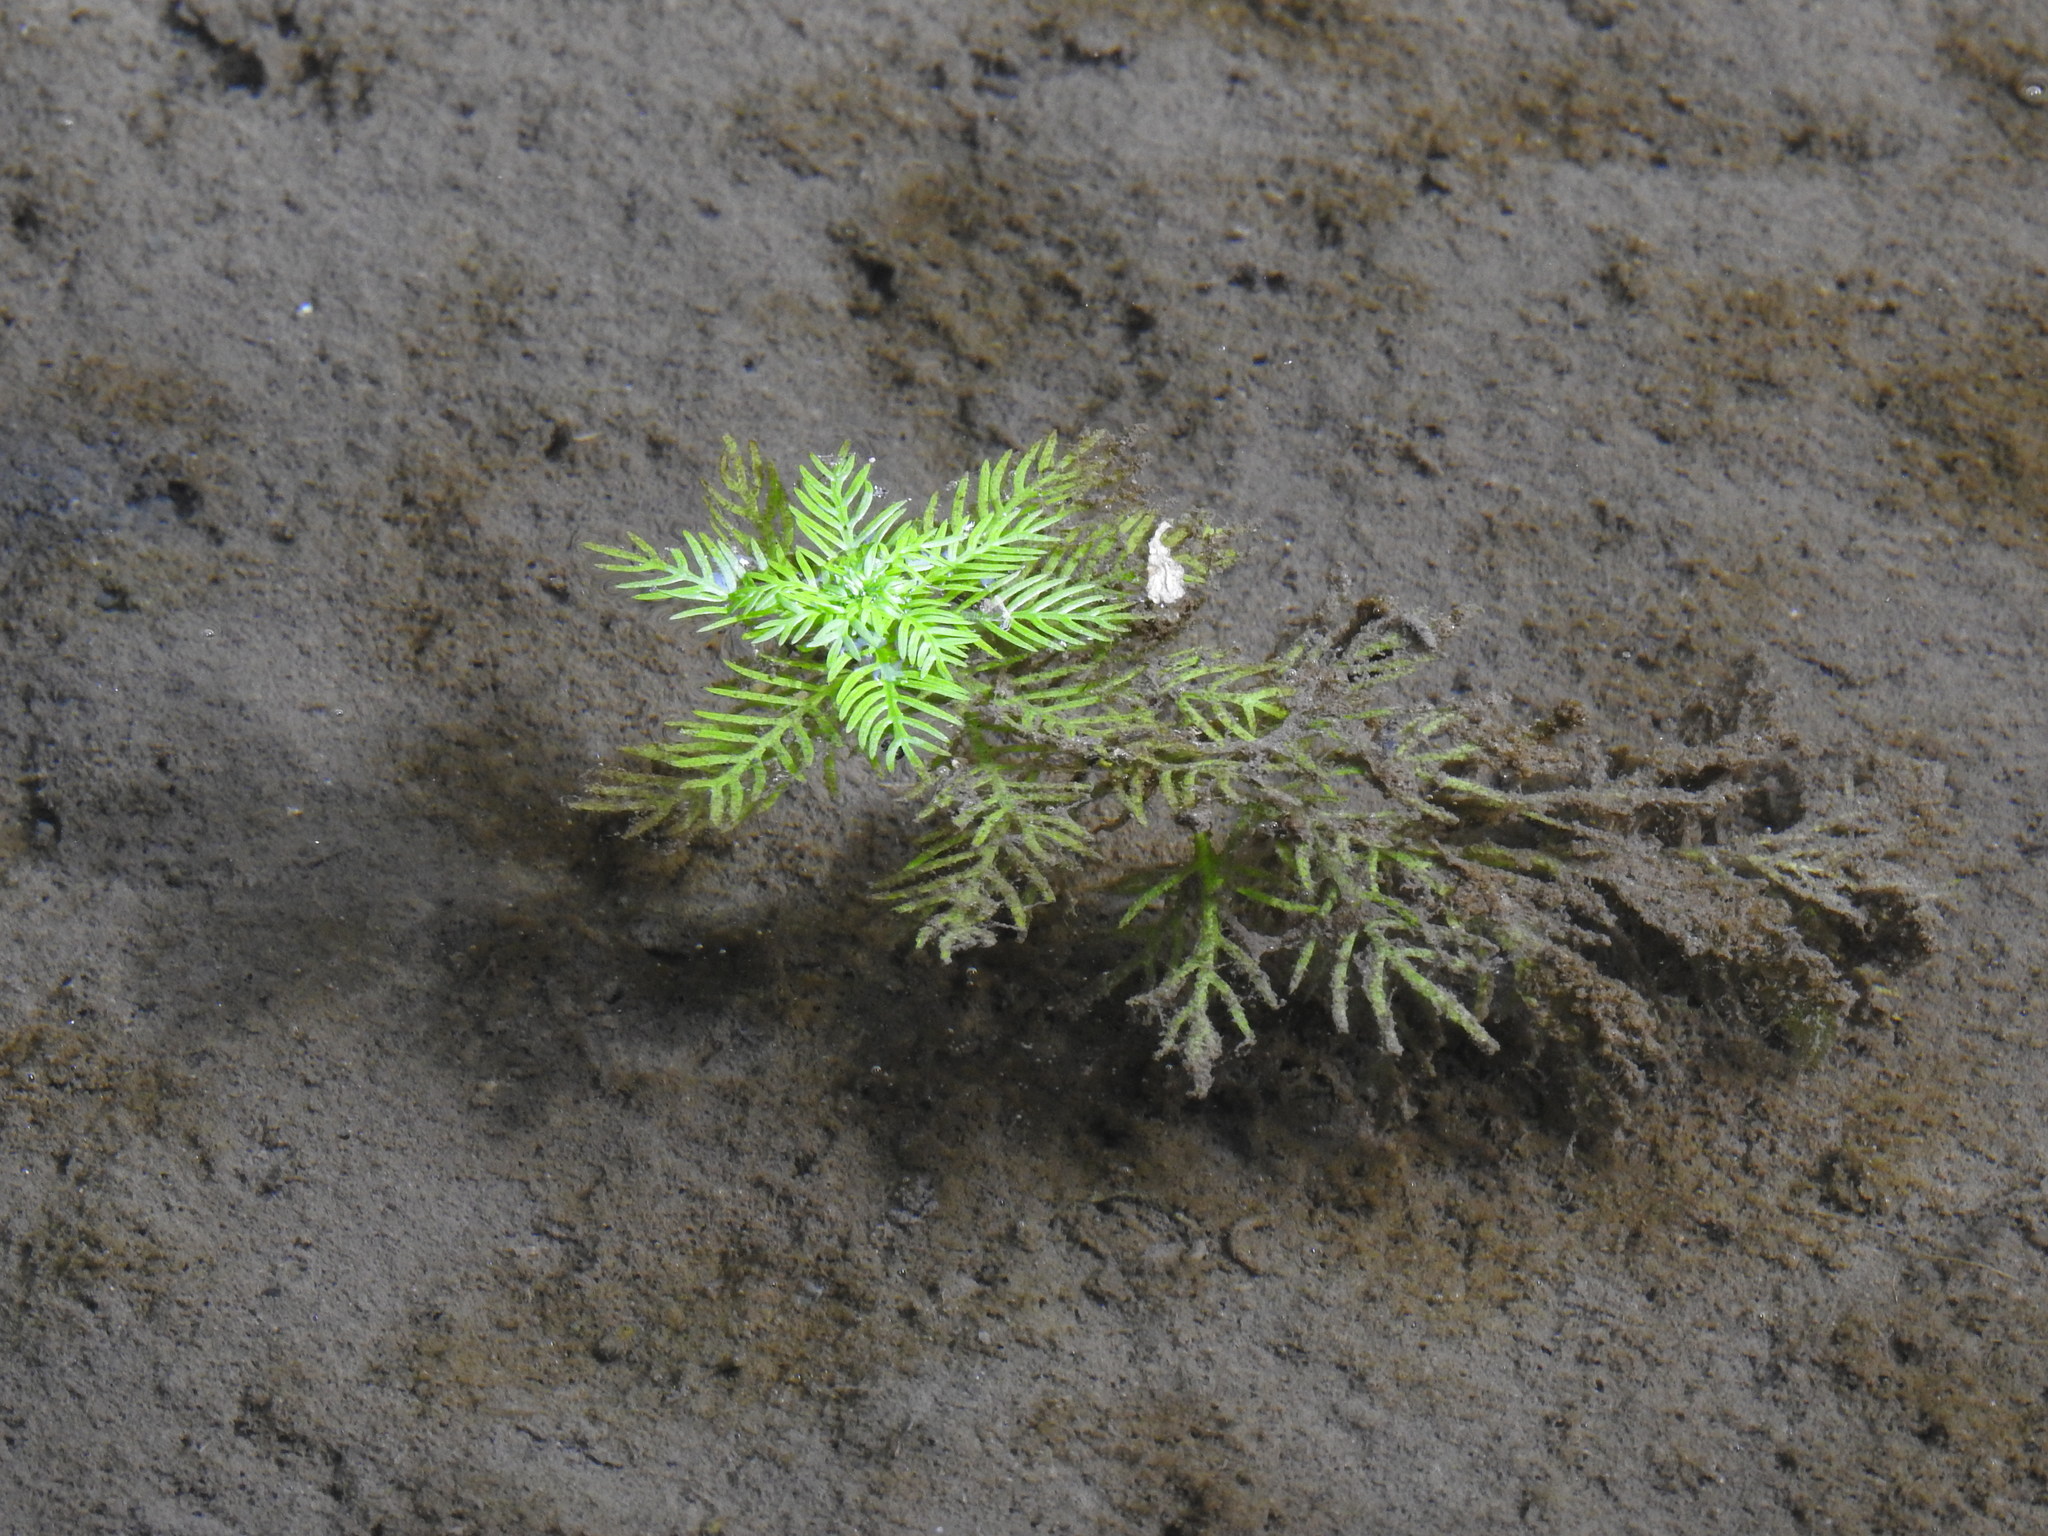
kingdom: Plantae
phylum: Tracheophyta
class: Magnoliopsida
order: Ericales
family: Primulaceae
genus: Hottonia
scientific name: Hottonia palustris
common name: Water-violet
